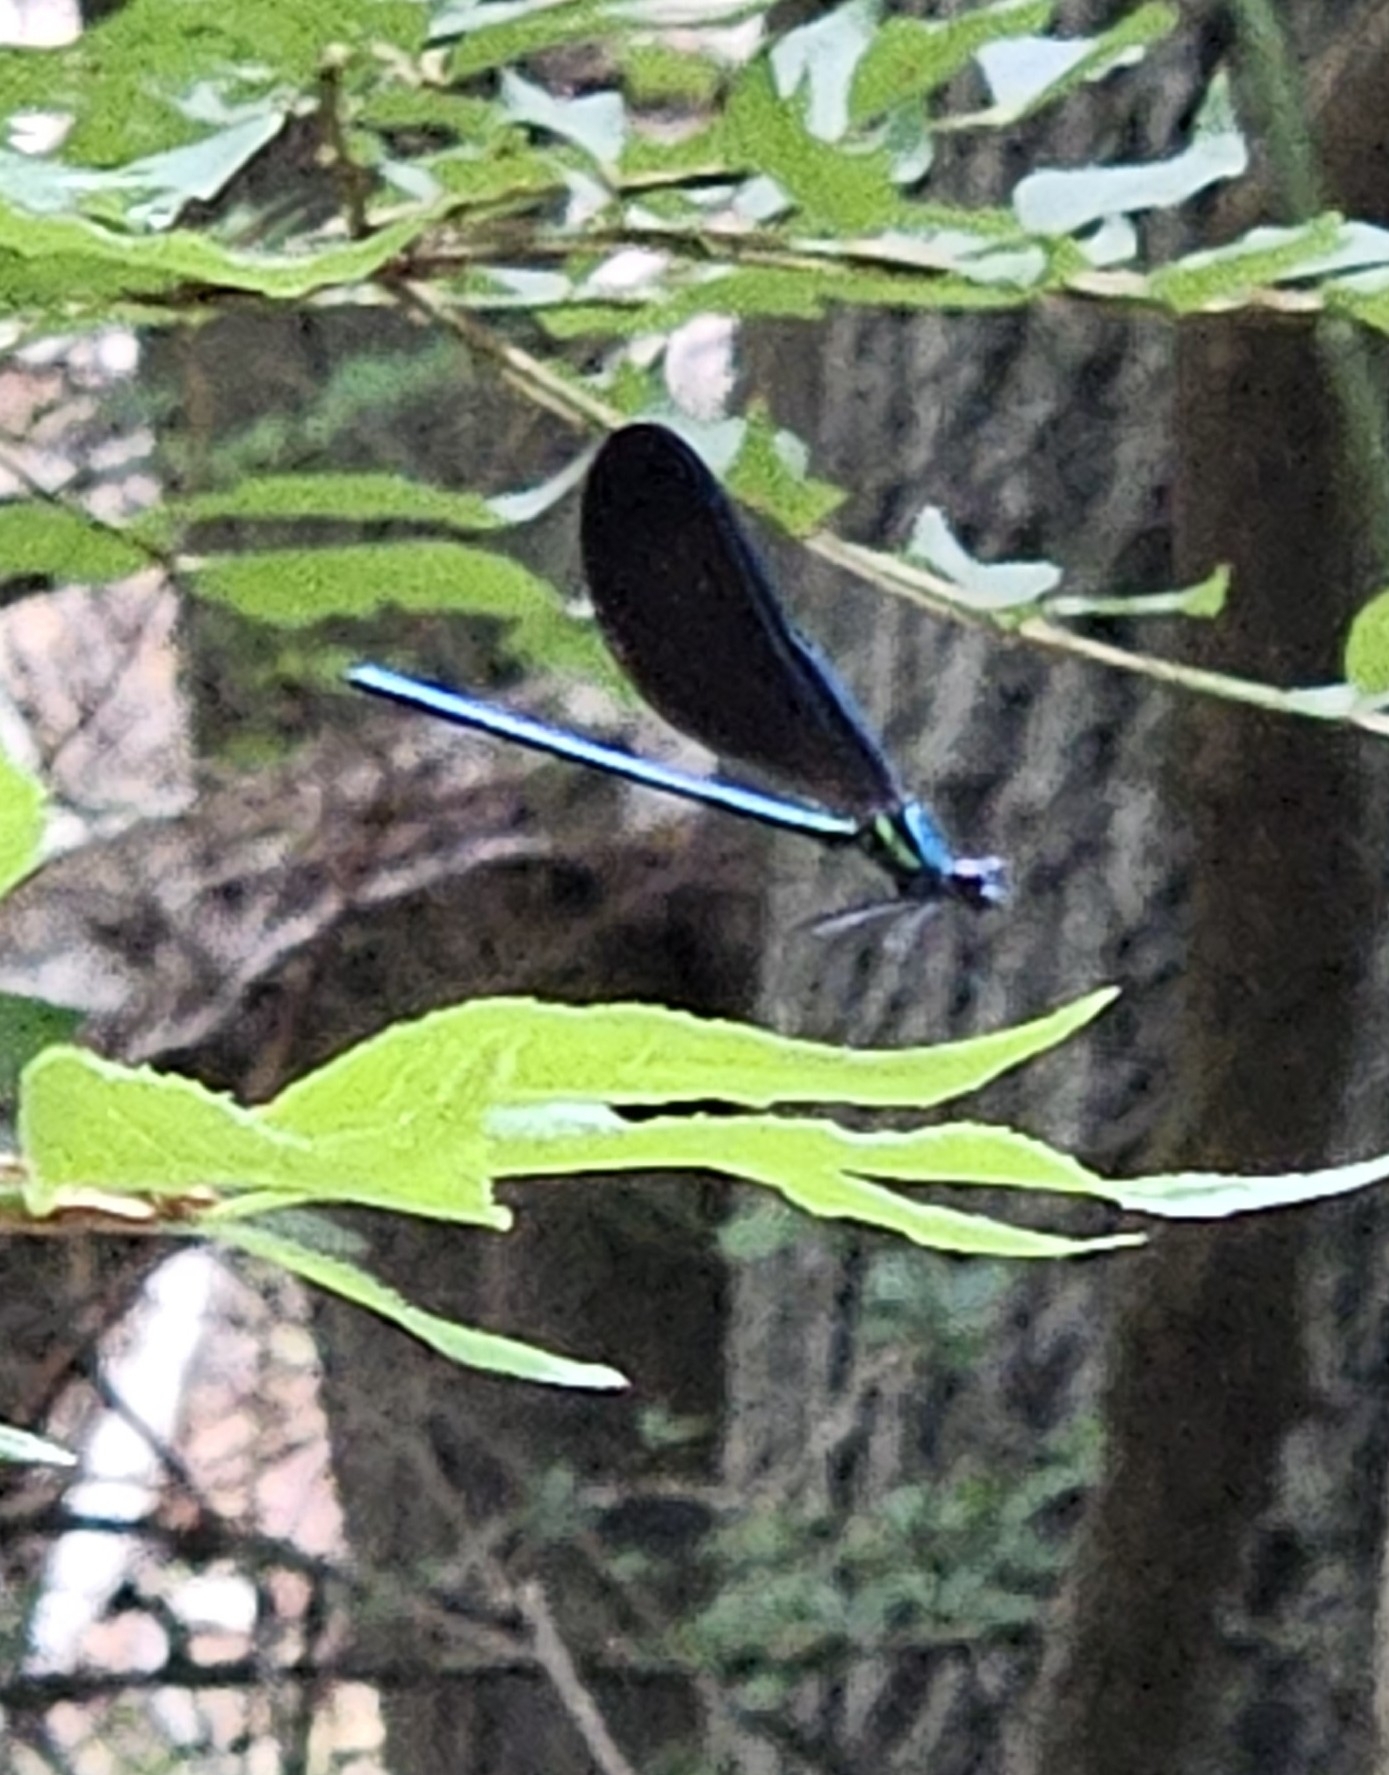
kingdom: Animalia
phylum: Arthropoda
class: Insecta
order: Odonata
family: Calopterygidae
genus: Calopteryx
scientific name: Calopteryx maculata
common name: Ebony jewelwing
